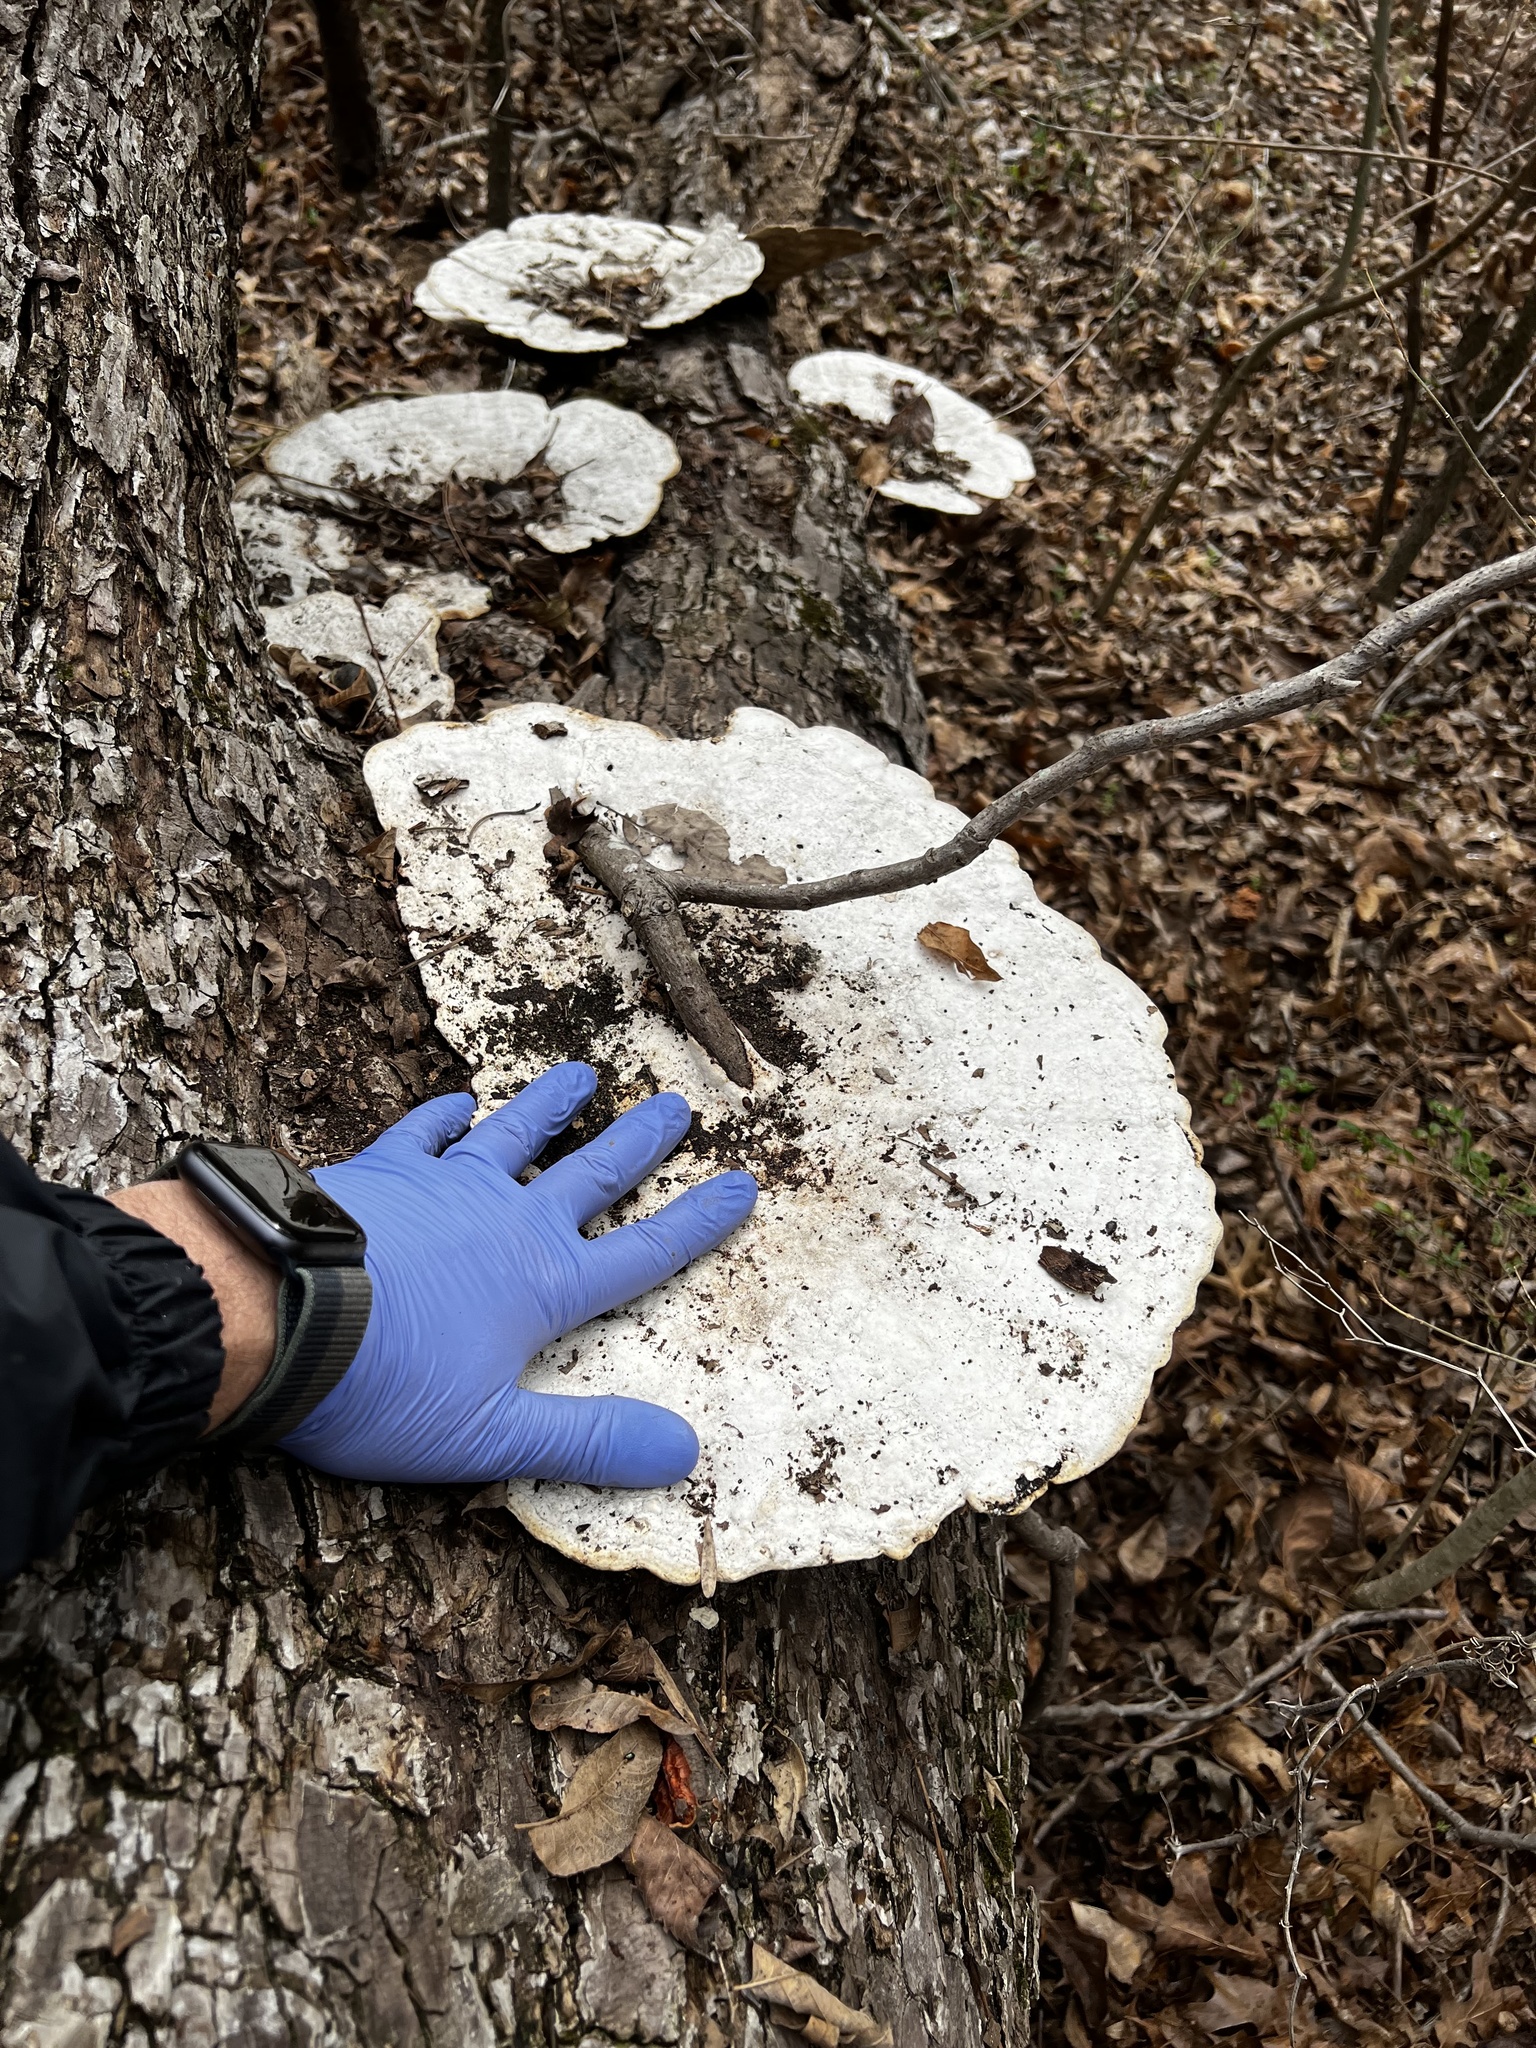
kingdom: Fungi
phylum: Basidiomycota
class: Agaricomycetes
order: Polyporales
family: Polyporaceae
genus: Trametes
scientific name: Trametes
